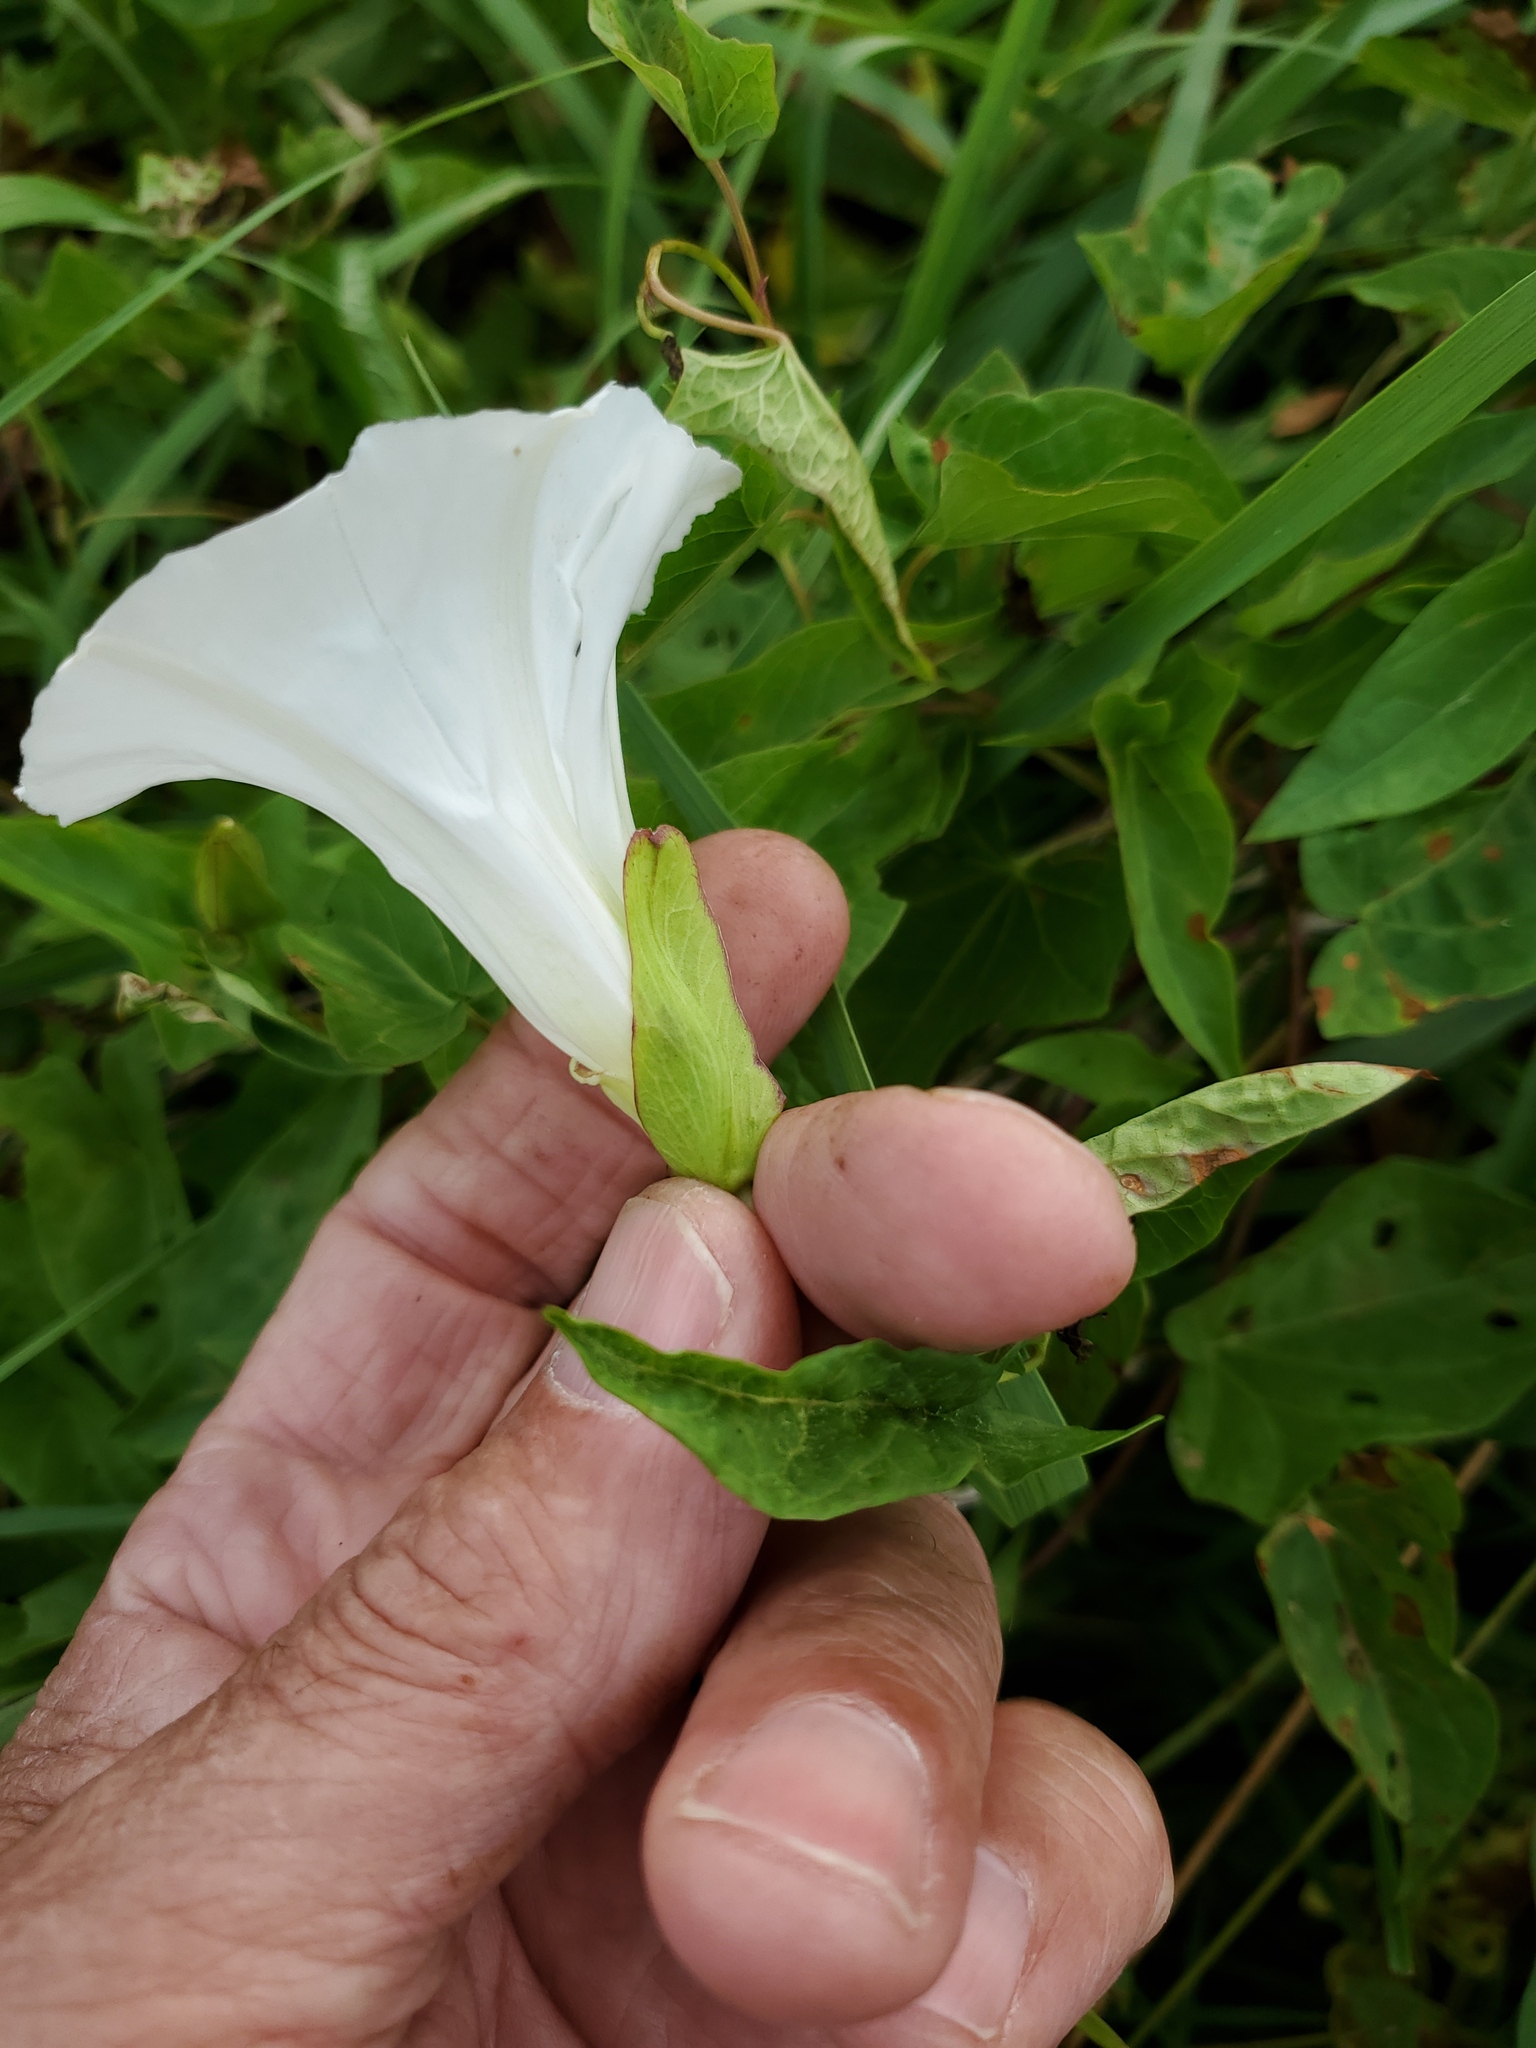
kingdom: Plantae
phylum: Tracheophyta
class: Magnoliopsida
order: Solanales
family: Convolvulaceae
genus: Calystegia
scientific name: Calystegia sepium
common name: Hedge bindweed
